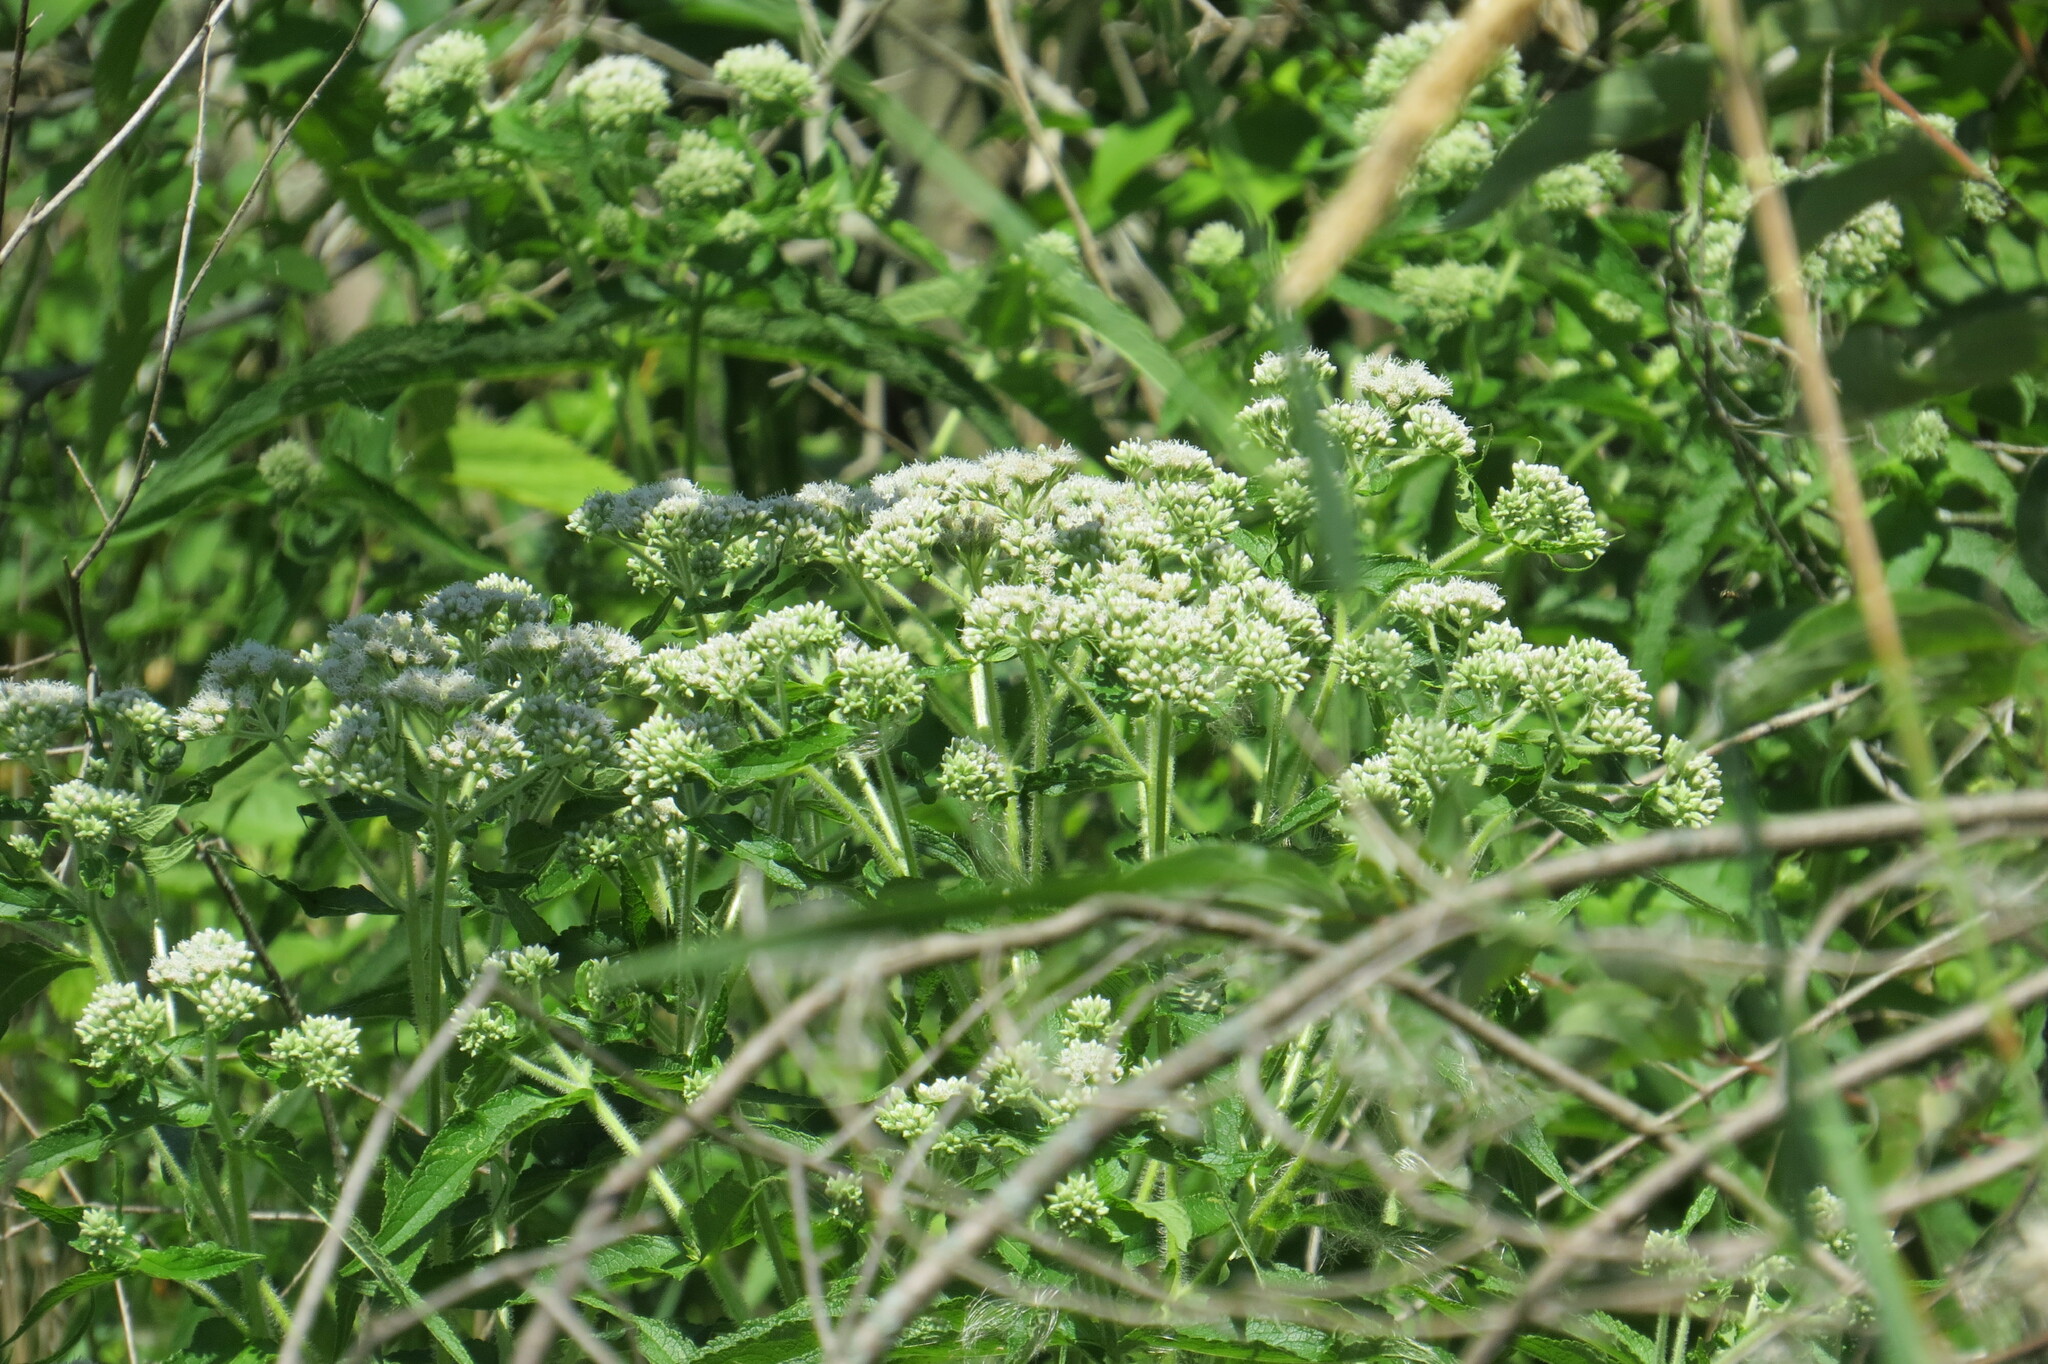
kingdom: Plantae
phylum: Tracheophyta
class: Magnoliopsida
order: Asterales
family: Asteraceae
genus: Eupatorium
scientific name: Eupatorium perfoliatum
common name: Boneset
